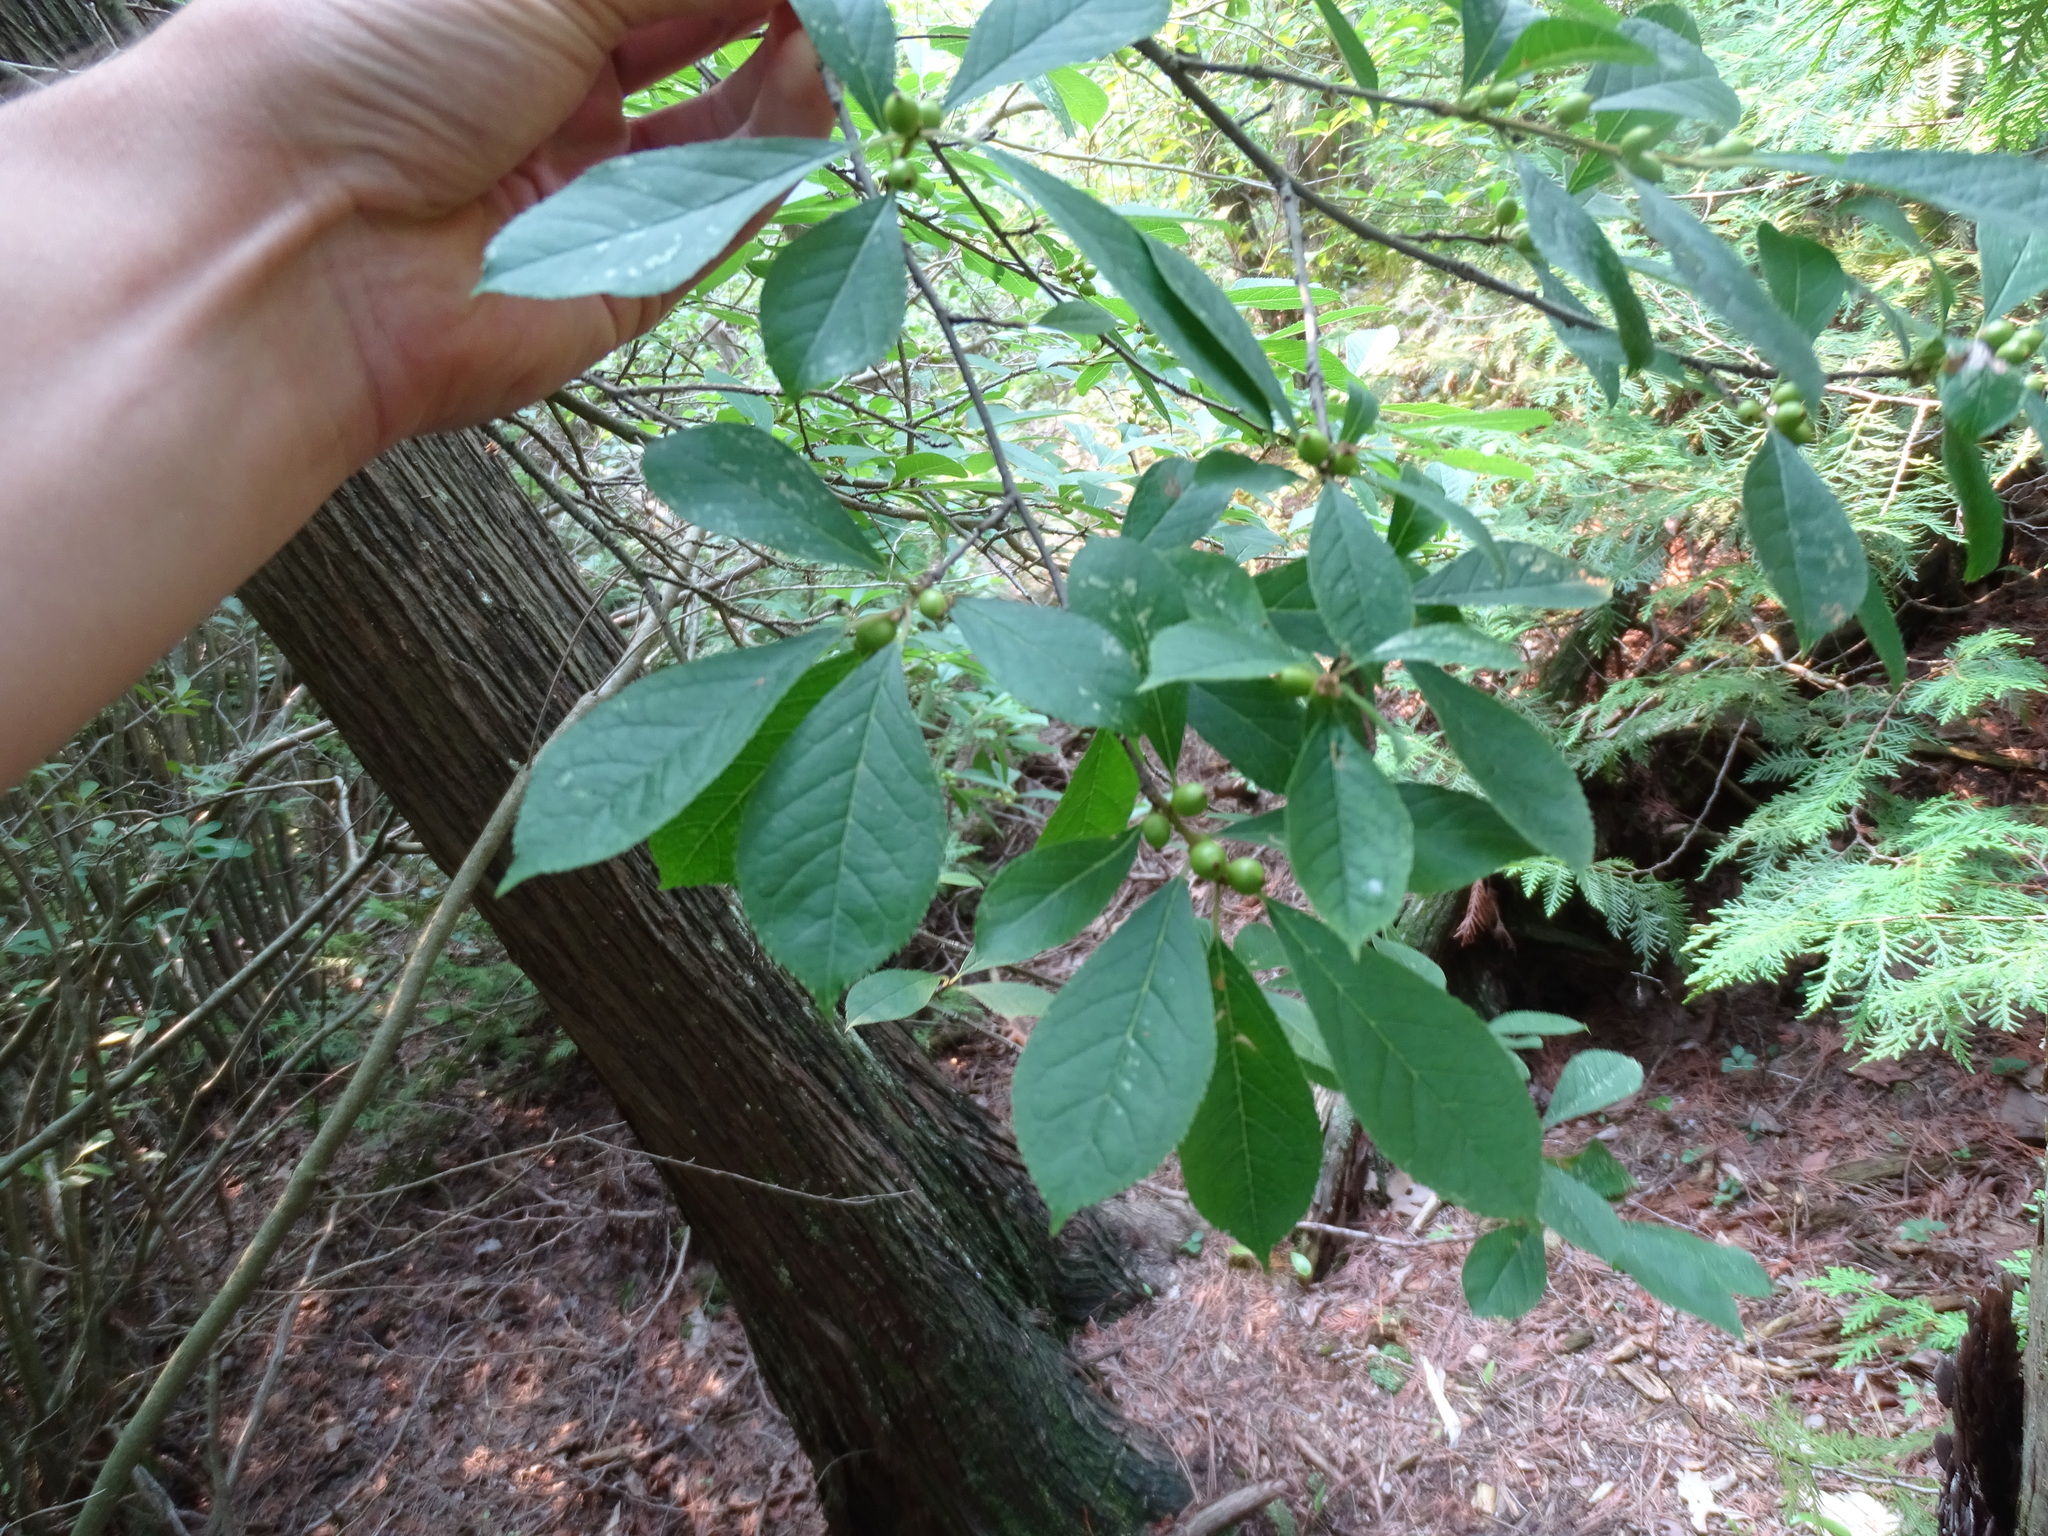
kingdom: Plantae
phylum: Tracheophyta
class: Magnoliopsida
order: Aquifoliales
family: Aquifoliaceae
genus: Ilex
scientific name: Ilex verticillata
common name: Virginia winterberry
